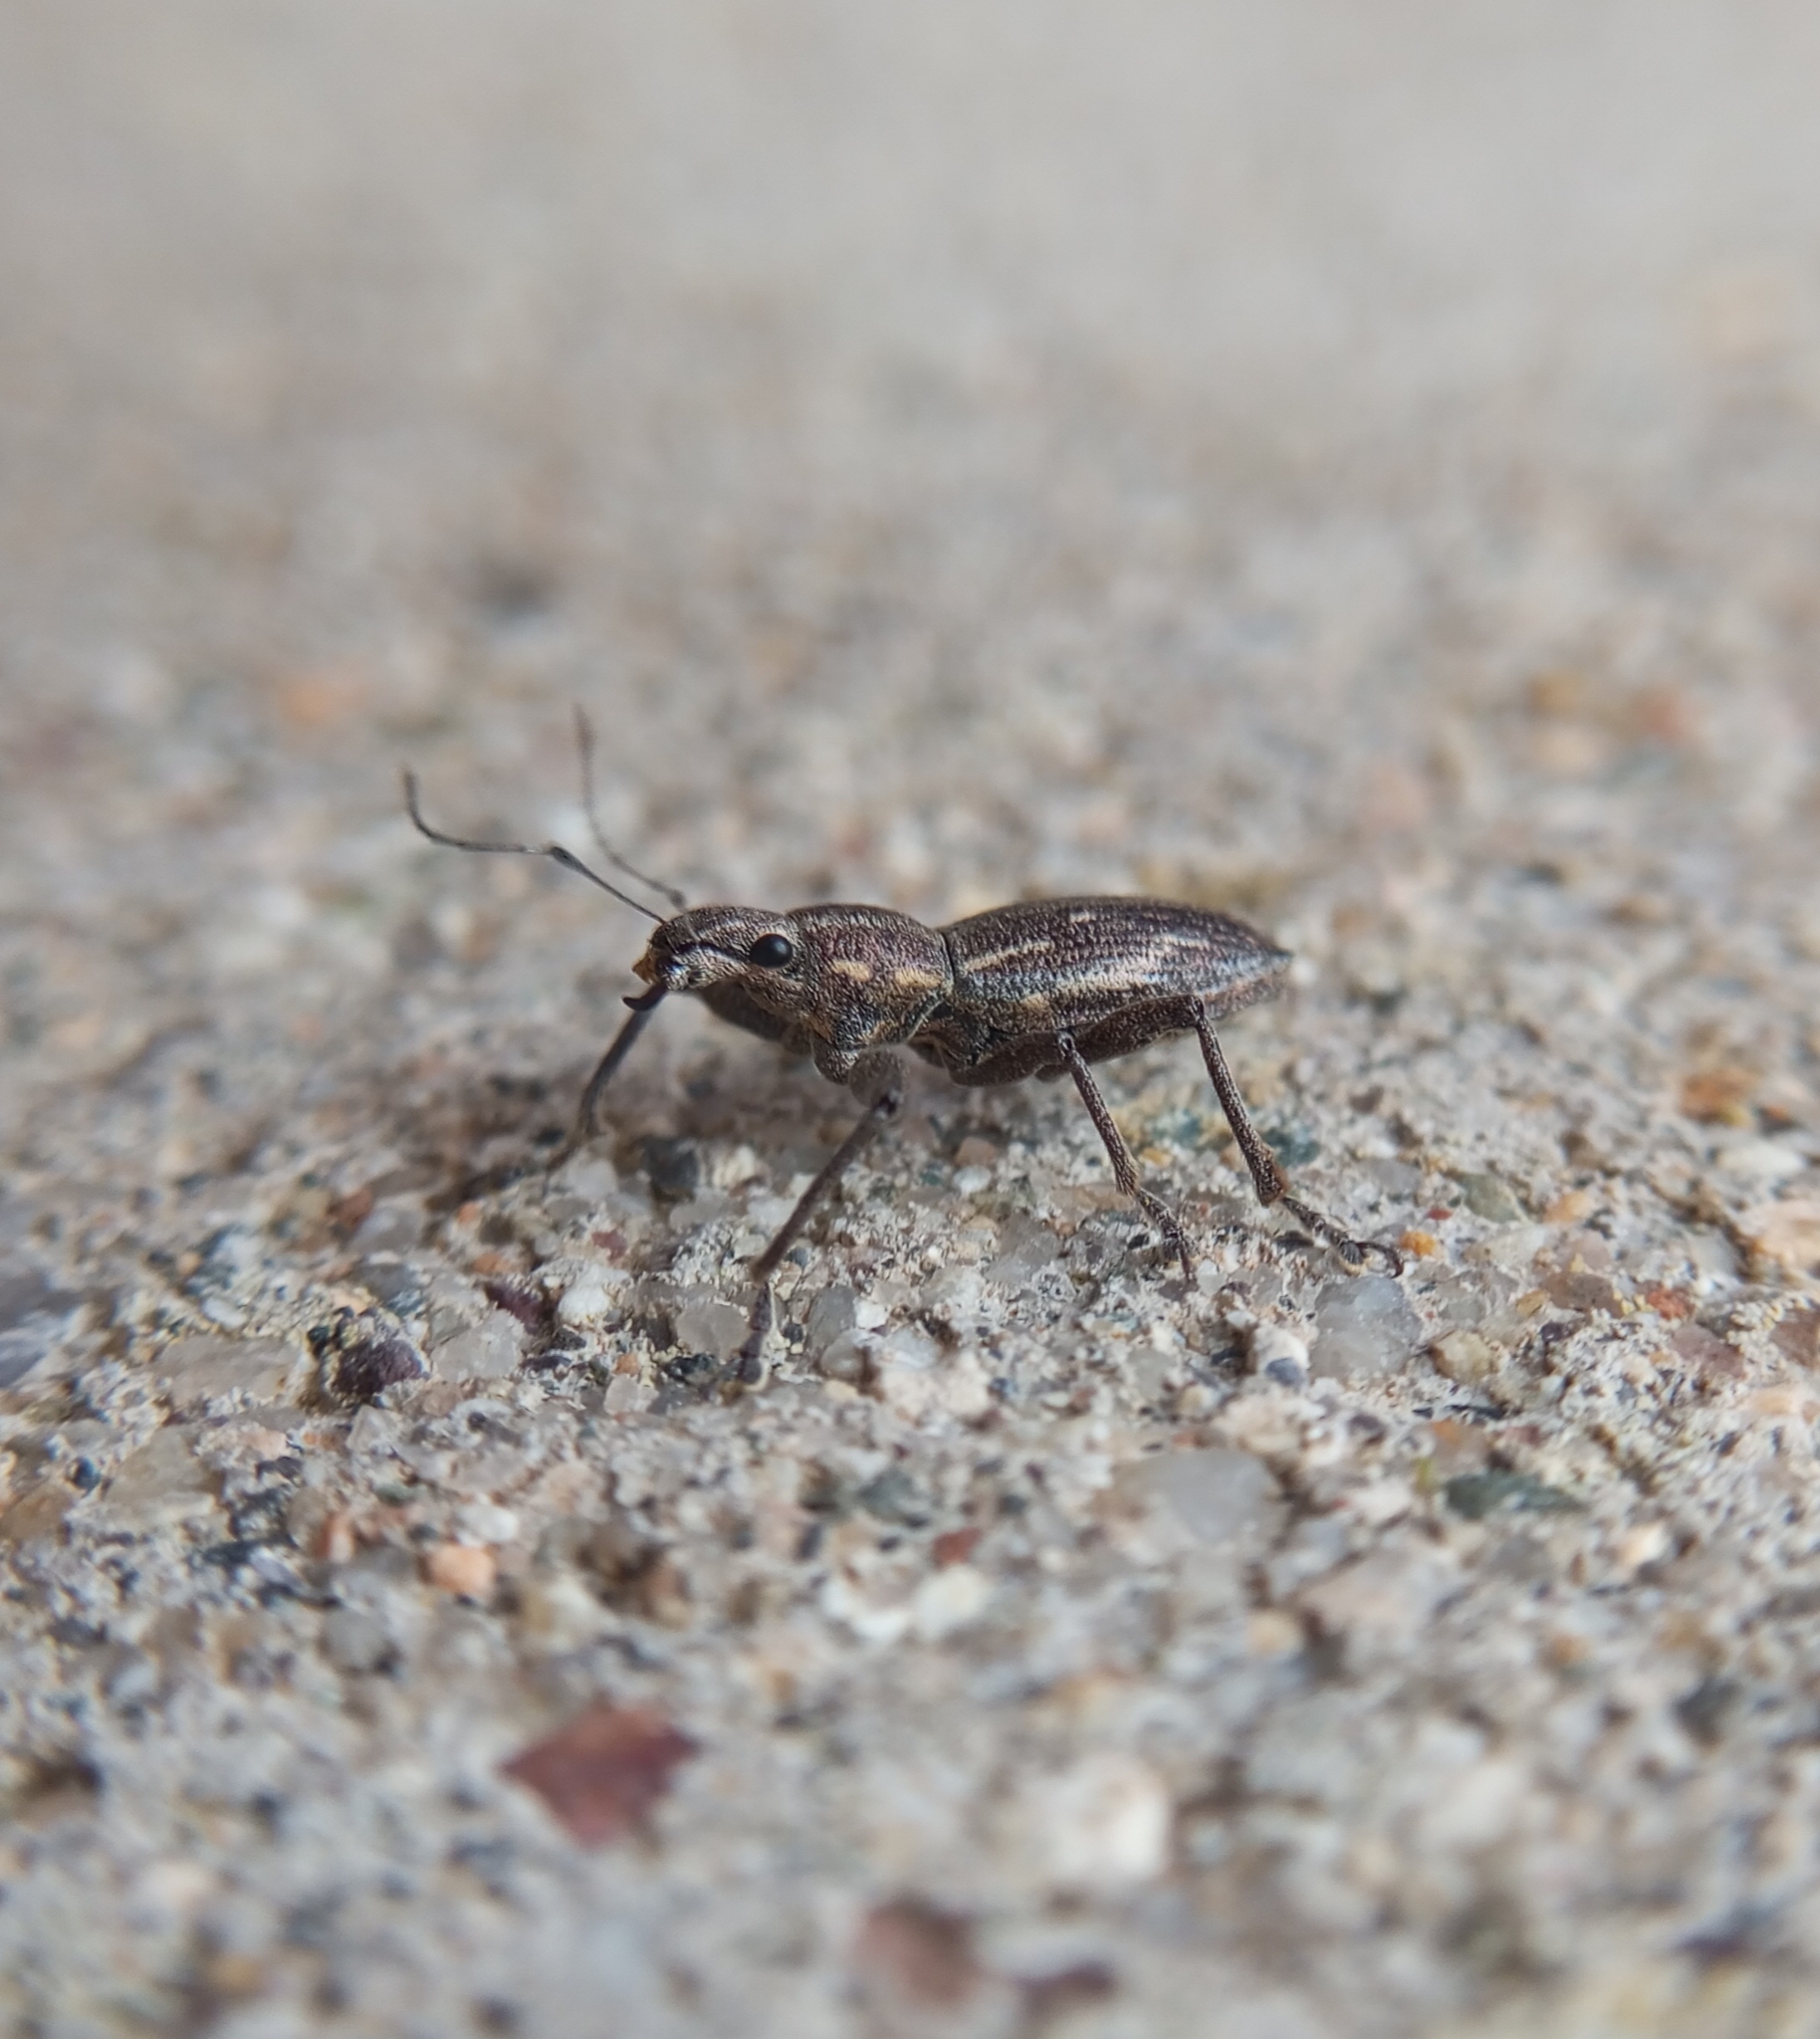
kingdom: Animalia
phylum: Arthropoda
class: Insecta
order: Coleoptera
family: Curculionidae
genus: Naupactus
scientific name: Naupactus xanthographus
